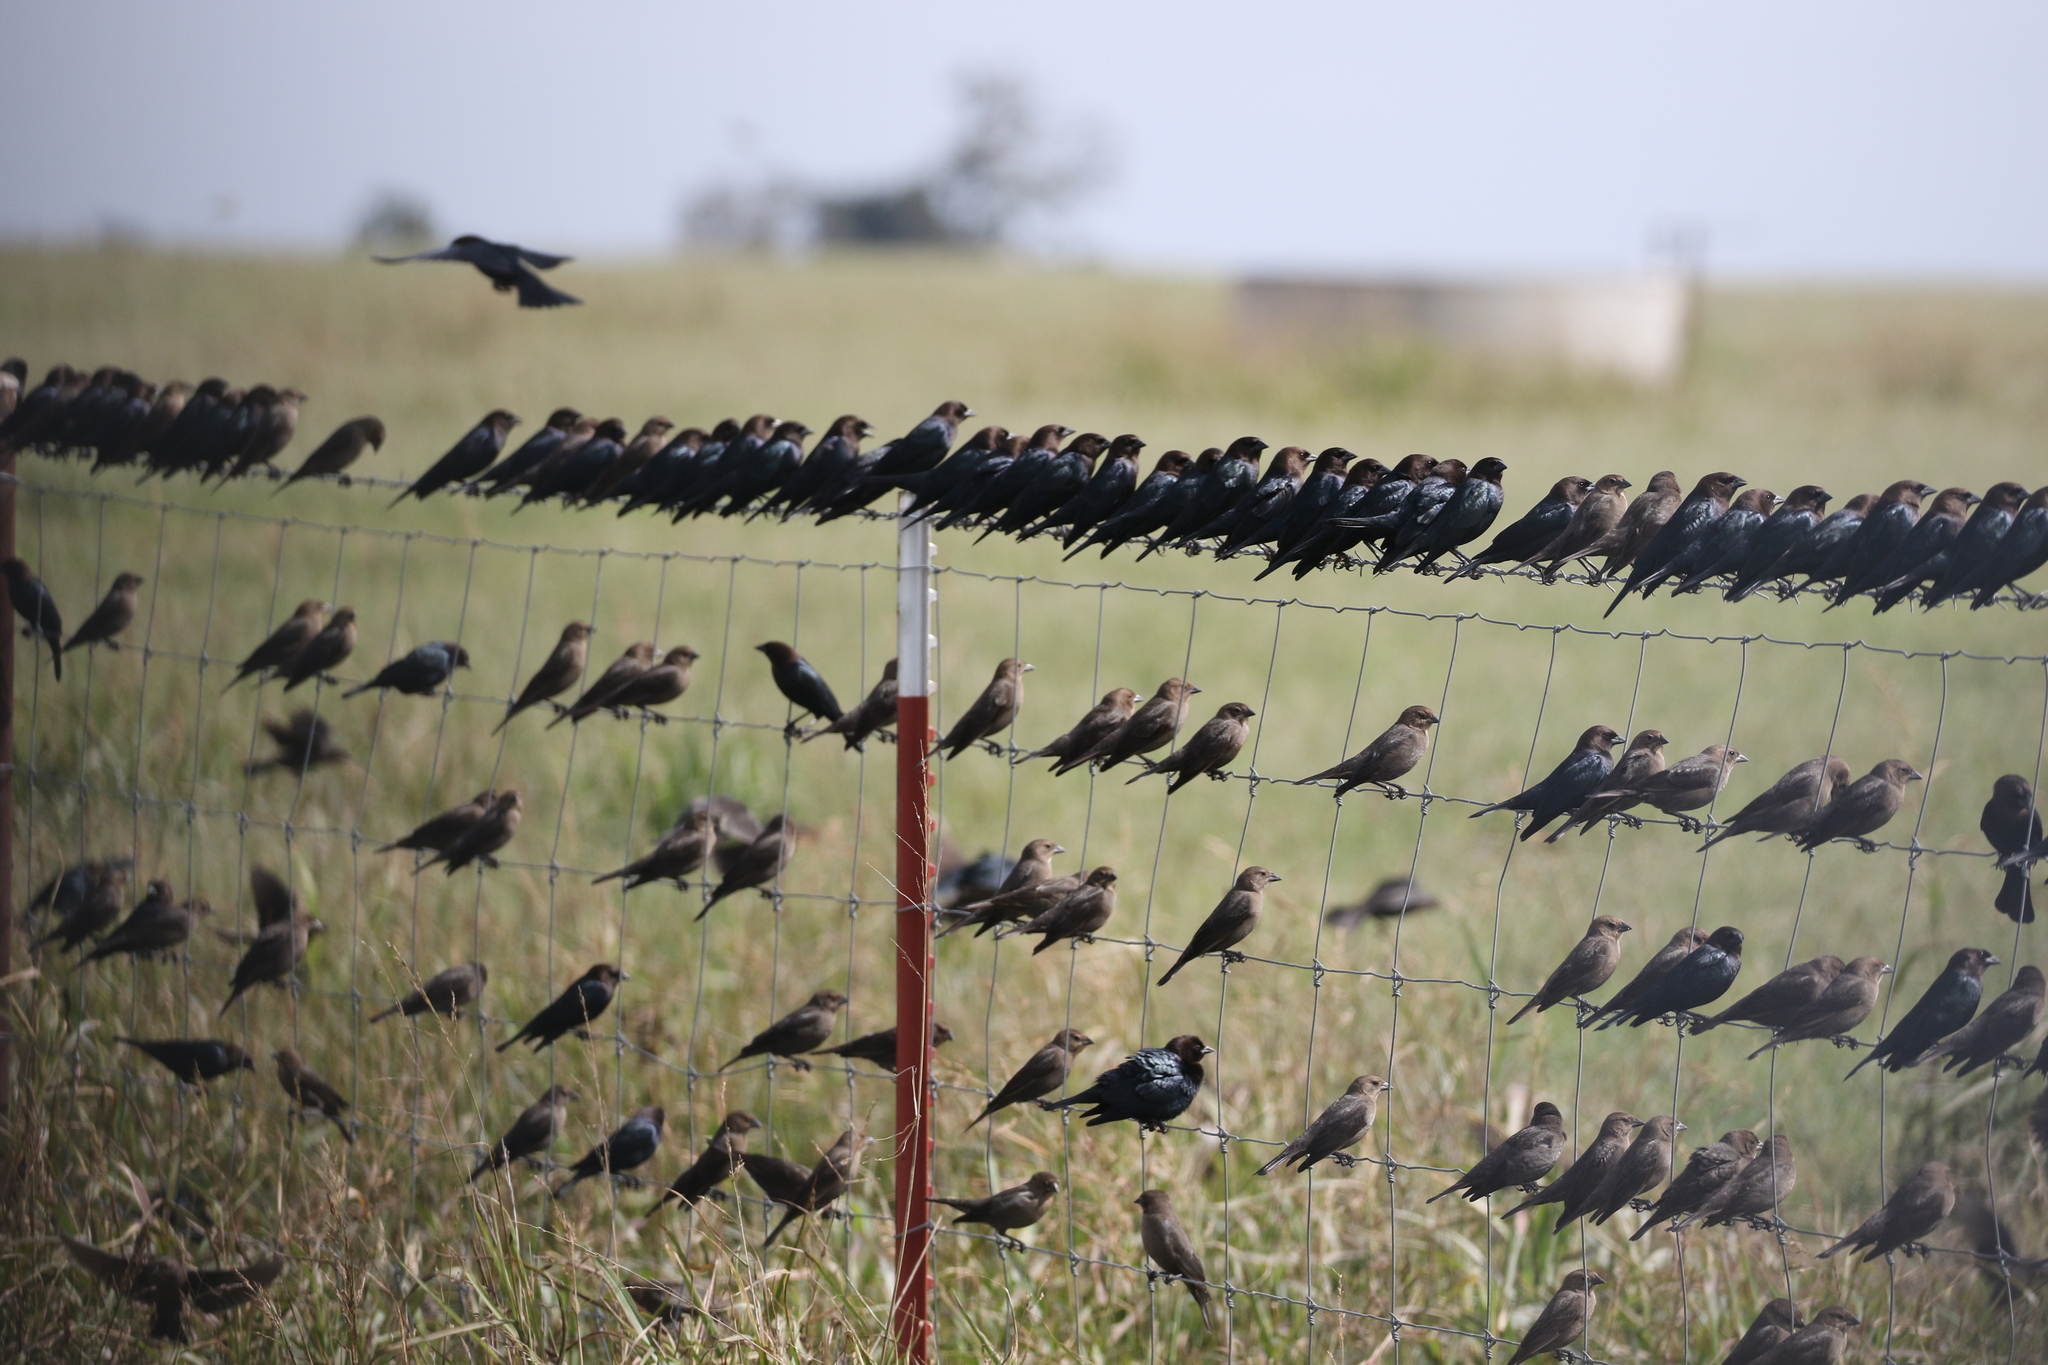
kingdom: Animalia
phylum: Chordata
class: Aves
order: Passeriformes
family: Icteridae
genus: Molothrus
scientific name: Molothrus ater
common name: Brown-headed cowbird
